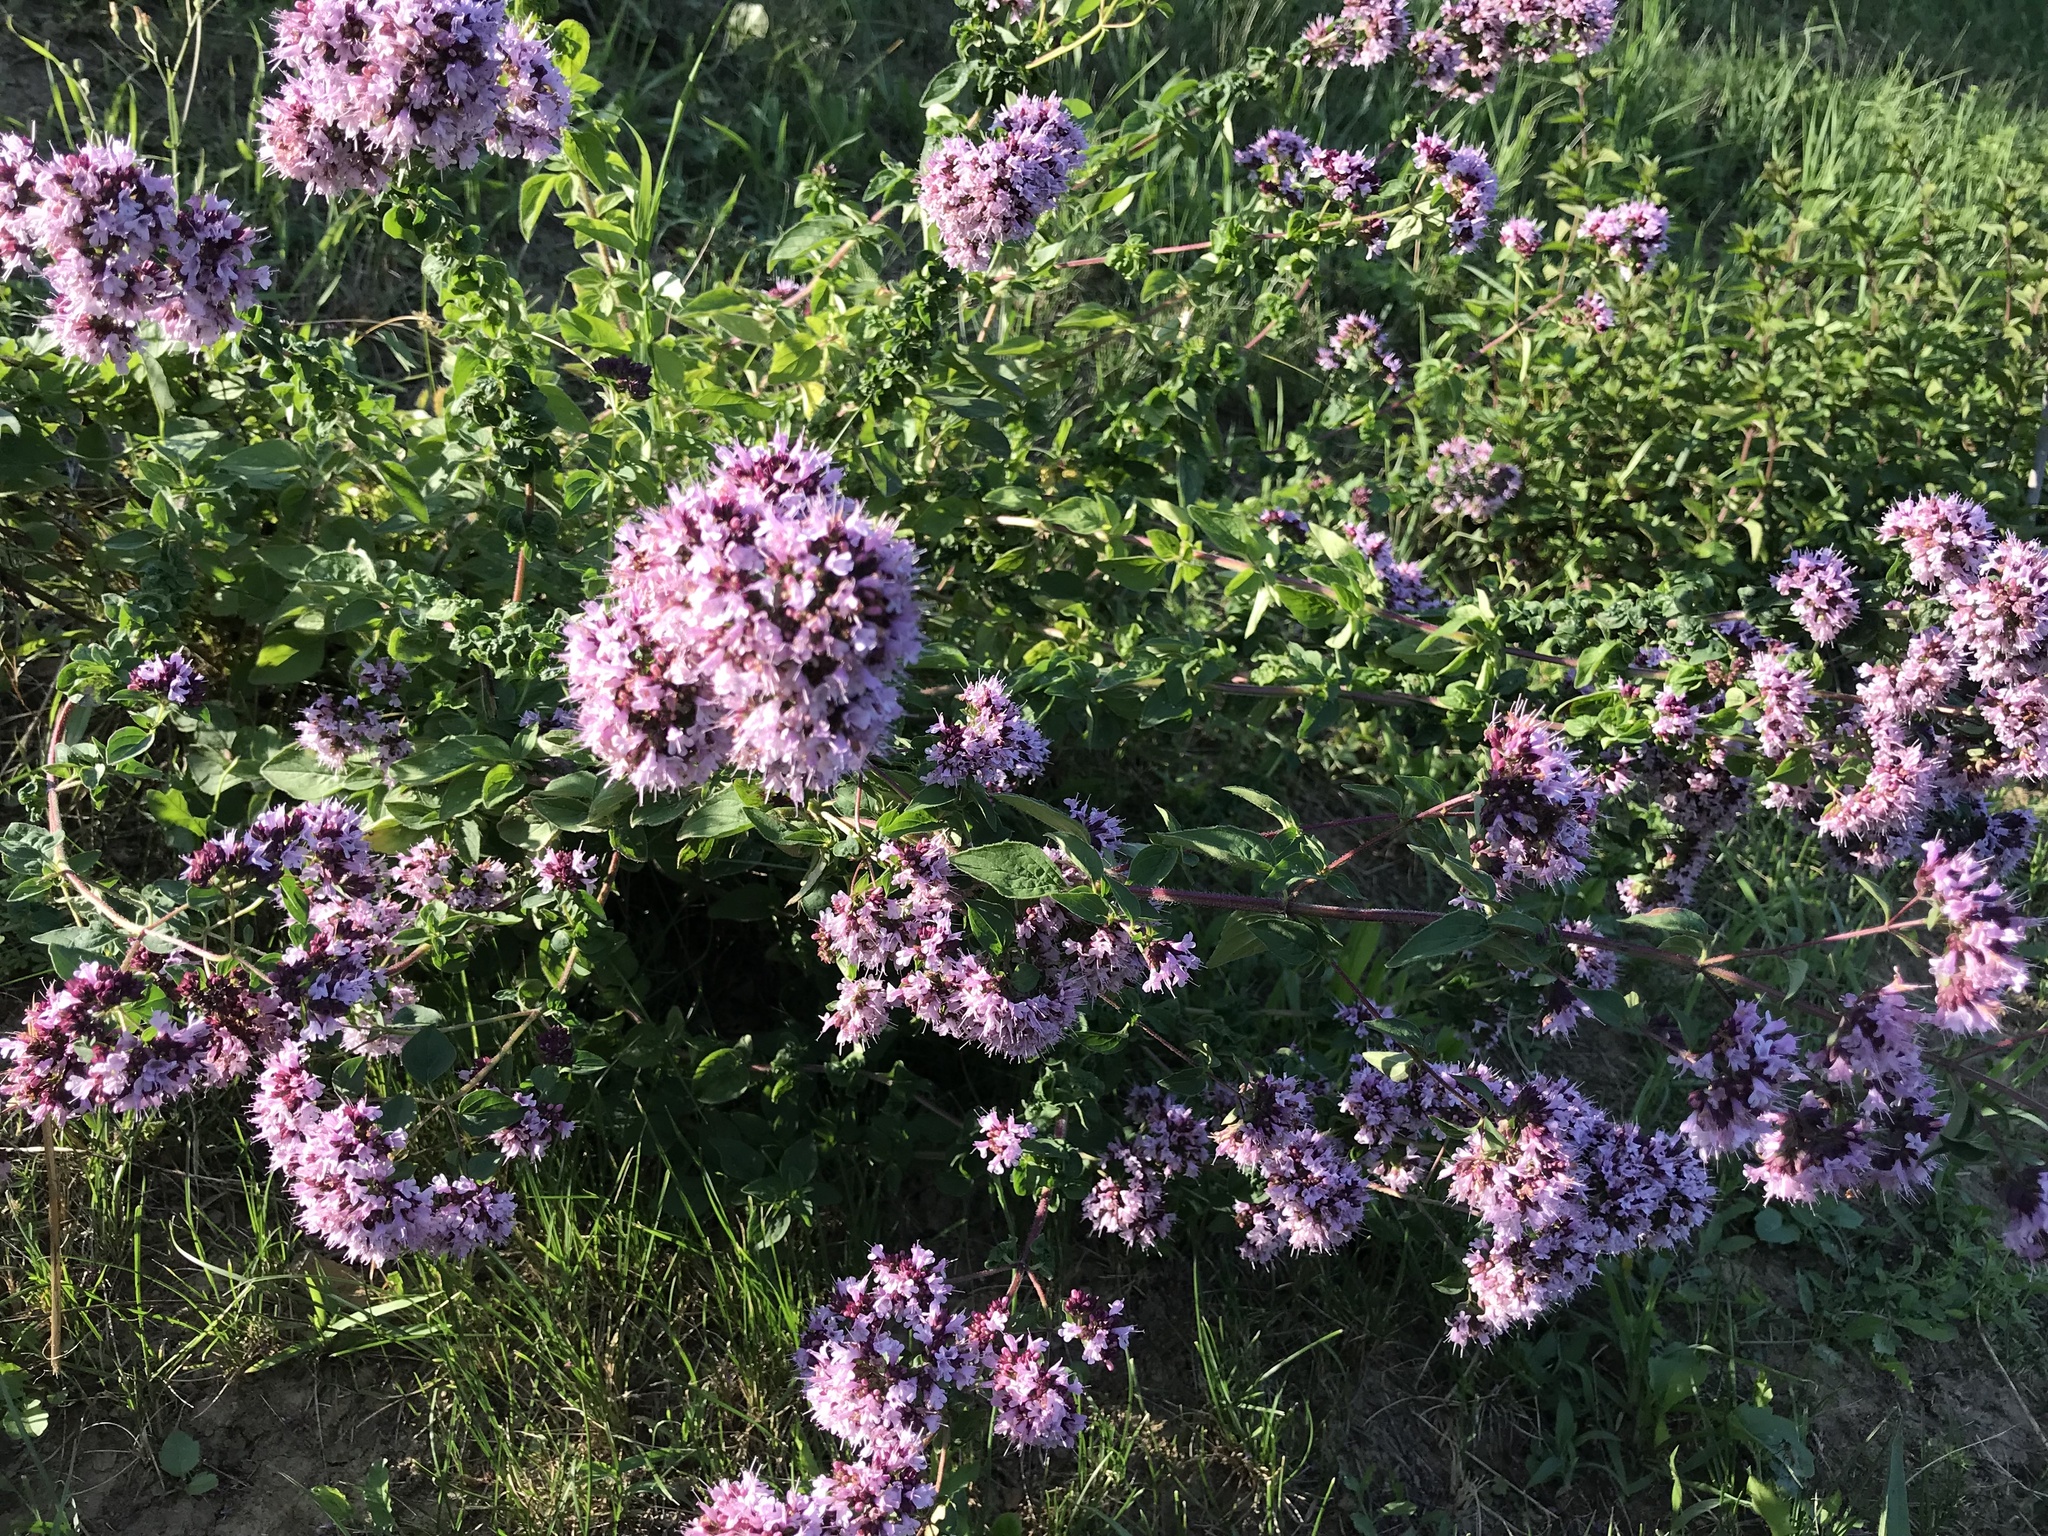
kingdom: Plantae
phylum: Tracheophyta
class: Magnoliopsida
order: Lamiales
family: Lamiaceae
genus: Origanum
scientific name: Origanum vulgare
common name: Wild marjoram
